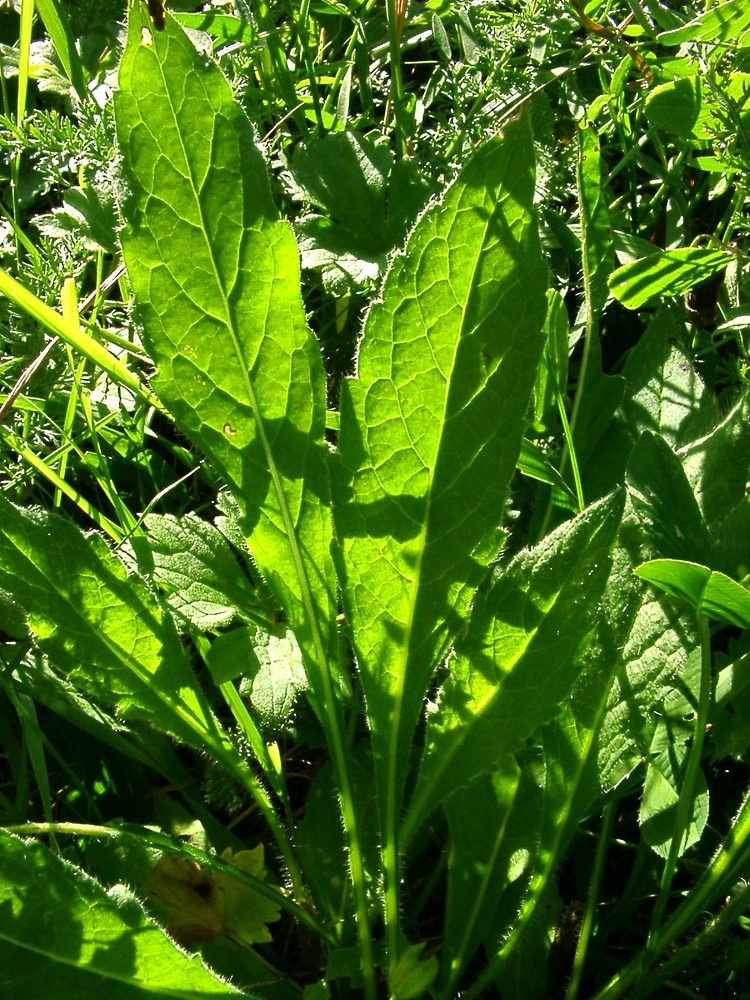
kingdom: Plantae
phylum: Tracheophyta
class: Magnoliopsida
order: Dipsacales
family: Caprifoliaceae
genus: Knautia
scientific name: Knautia arvensis
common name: Field scabiosa
